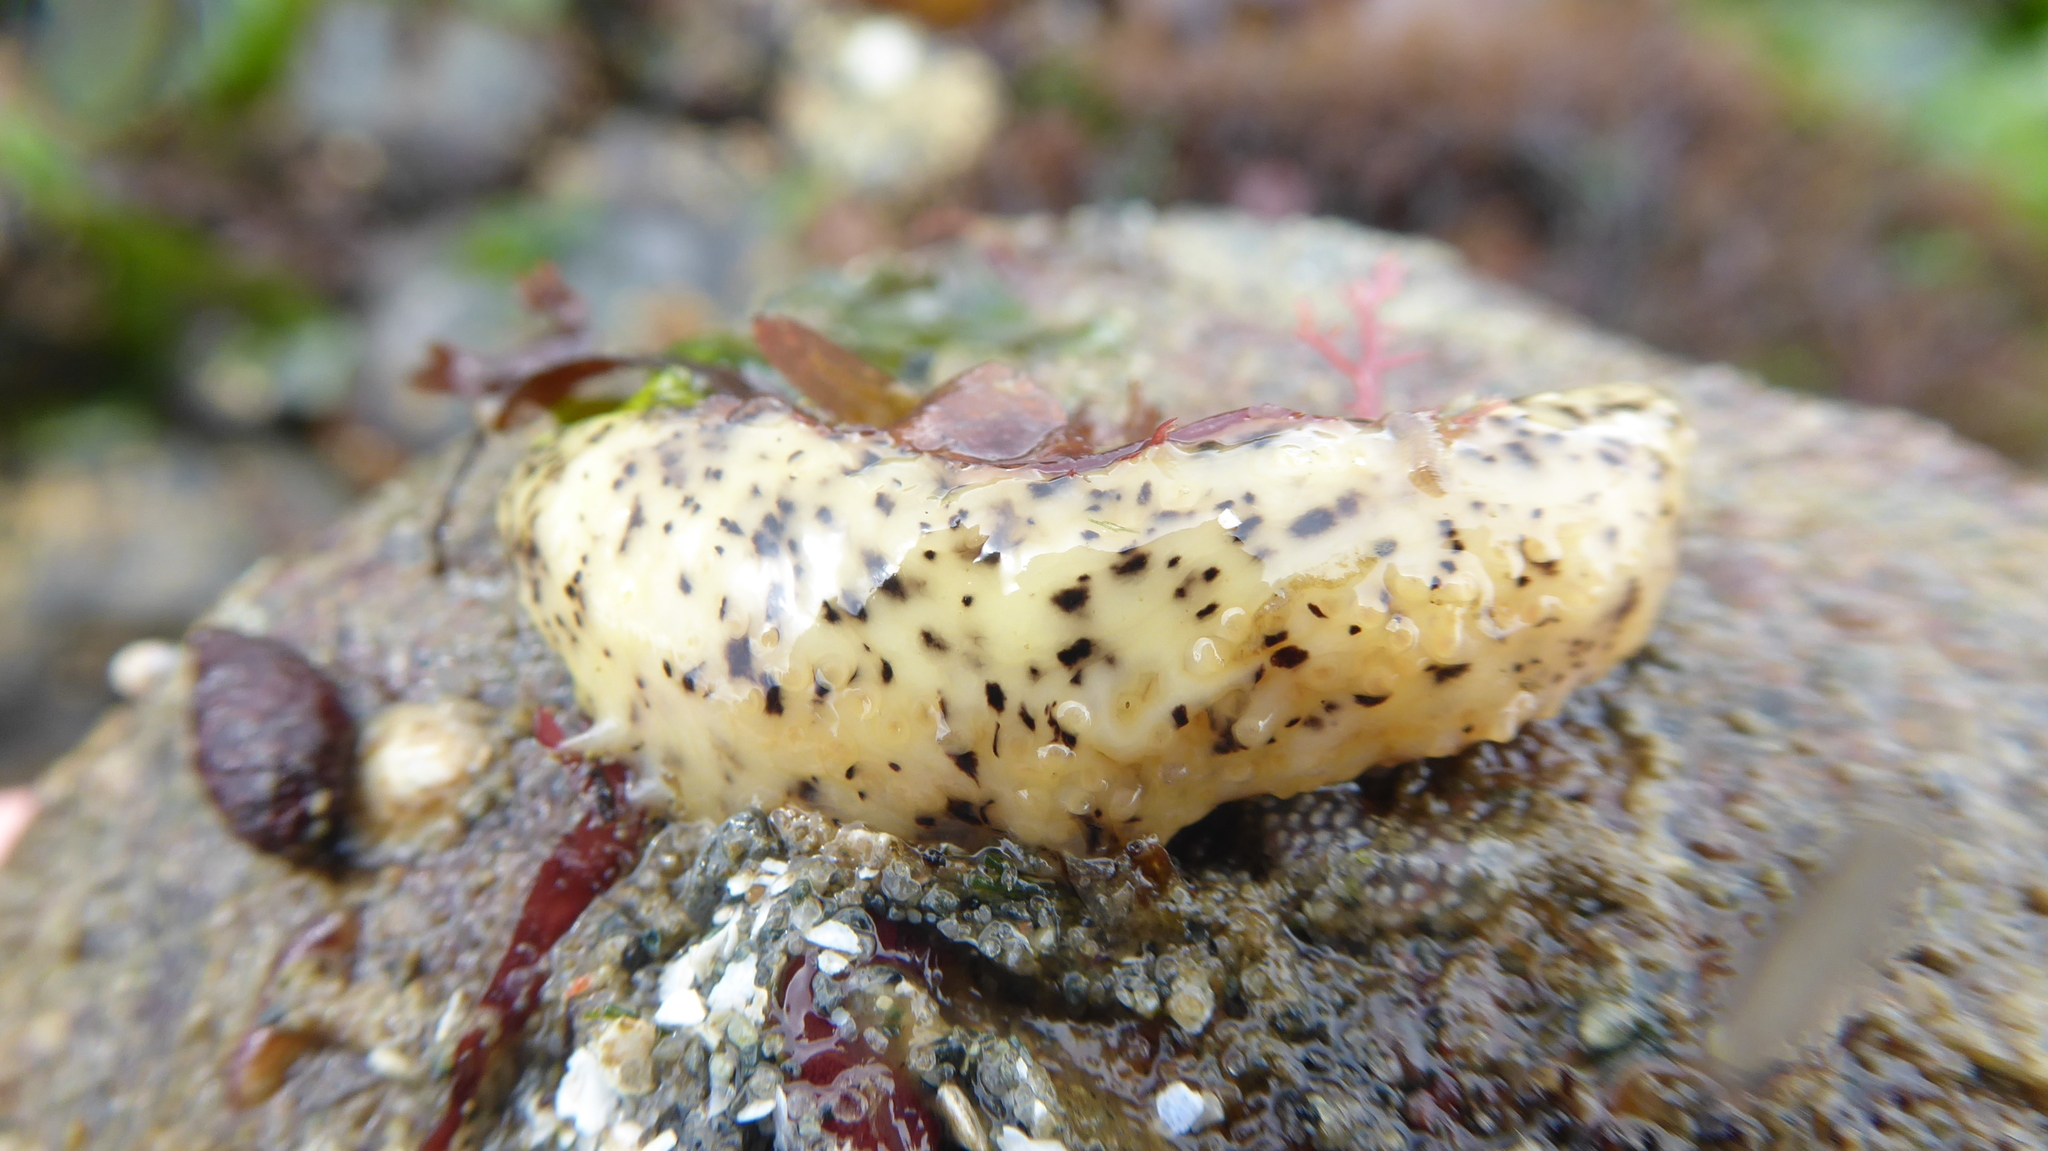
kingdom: Animalia
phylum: Echinodermata
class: Holothuroidea
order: Dendrochirotida
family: Cucumariidae
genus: Cucumaria
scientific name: Cucumaria piperata
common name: Peppered sea cucumber
